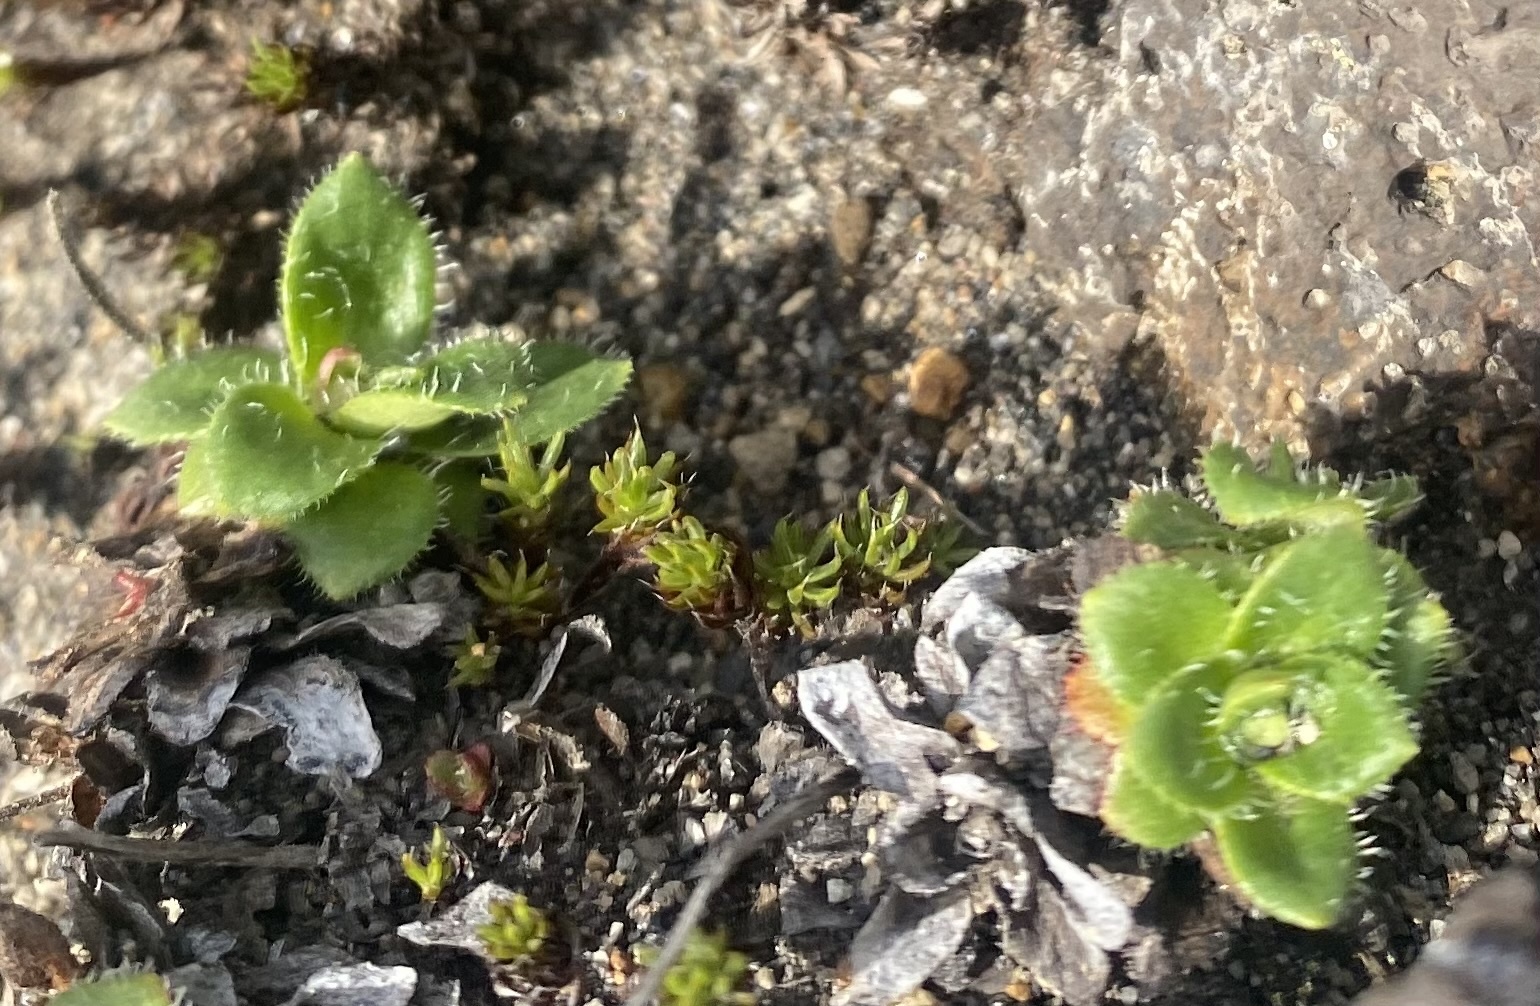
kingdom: Plantae
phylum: Tracheophyta
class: Magnoliopsida
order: Saxifragales
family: Saxifragaceae
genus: Micranthes
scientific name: Micranthes merkii
